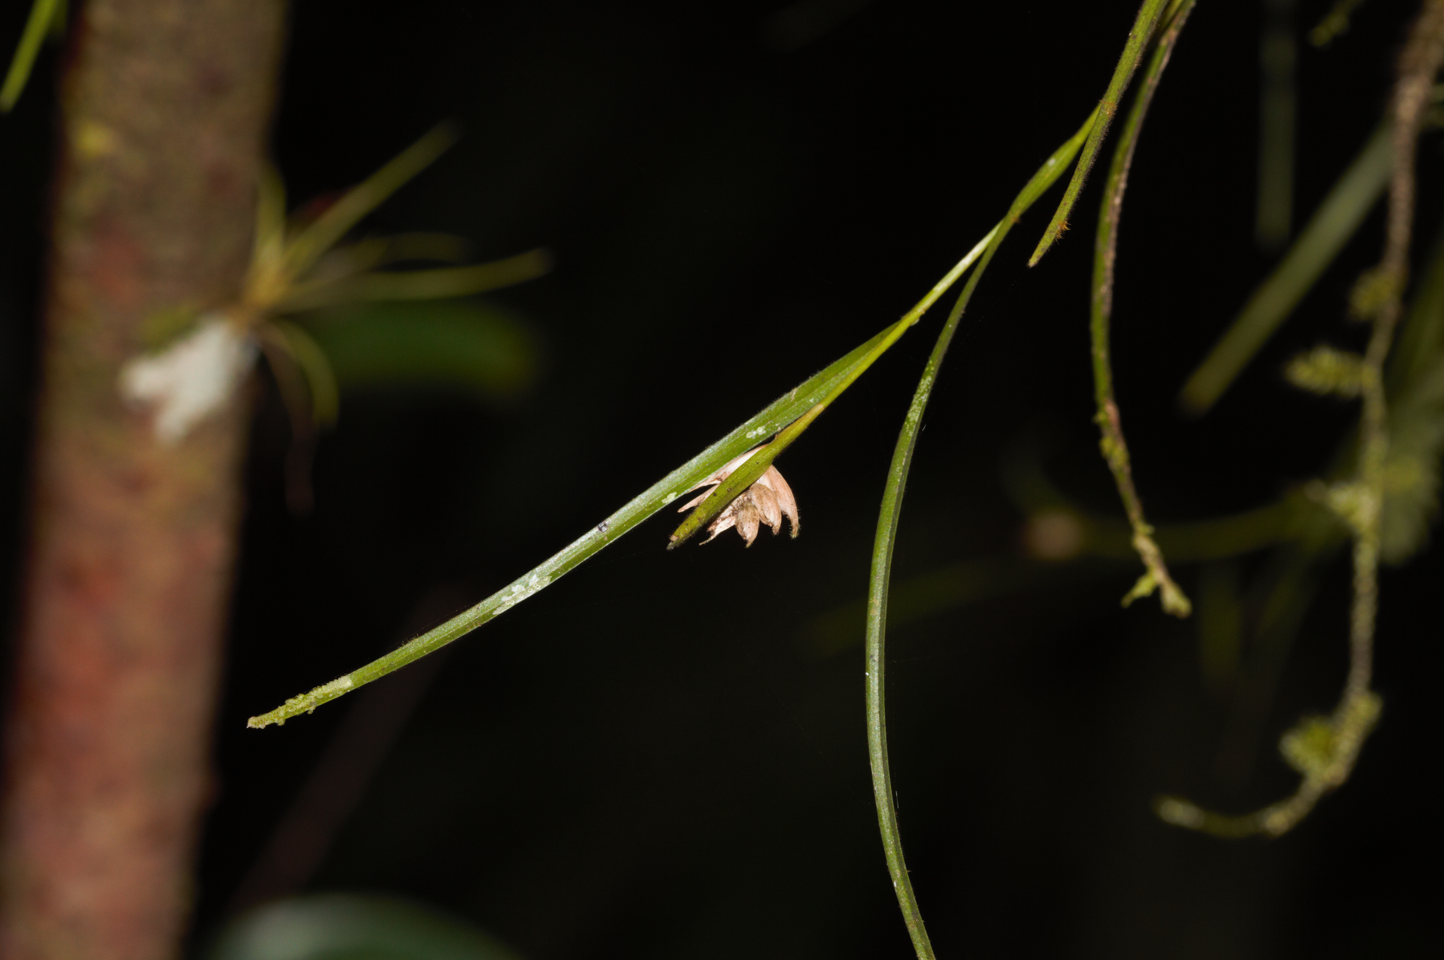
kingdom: Plantae
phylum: Tracheophyta
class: Liliopsida
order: Asparagales
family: Orchidaceae
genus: Elleanthus
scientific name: Elleanthus graminifolius
